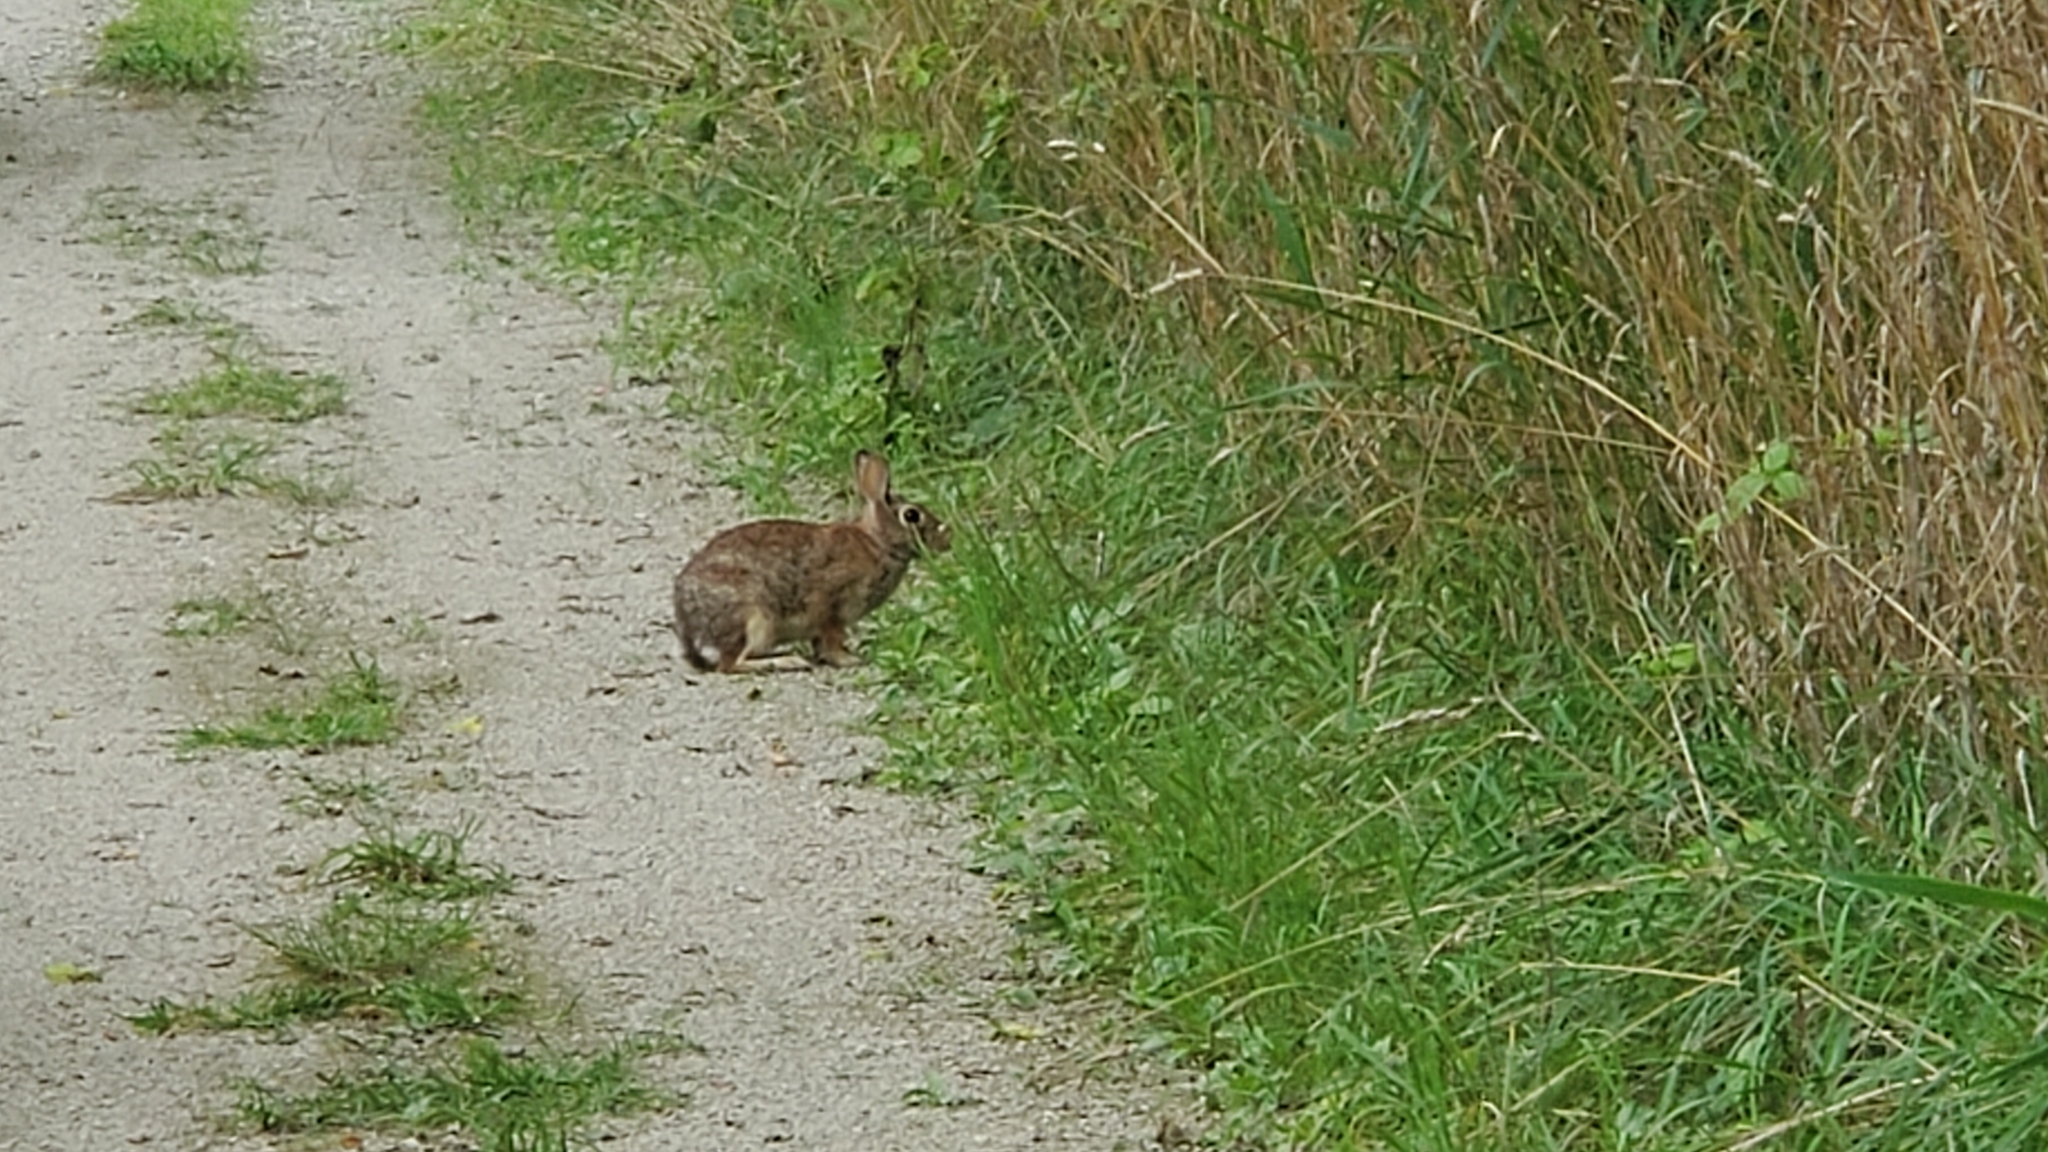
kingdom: Animalia
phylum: Chordata
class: Mammalia
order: Lagomorpha
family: Leporidae
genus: Sylvilagus
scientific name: Sylvilagus floridanus
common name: Eastern cottontail
